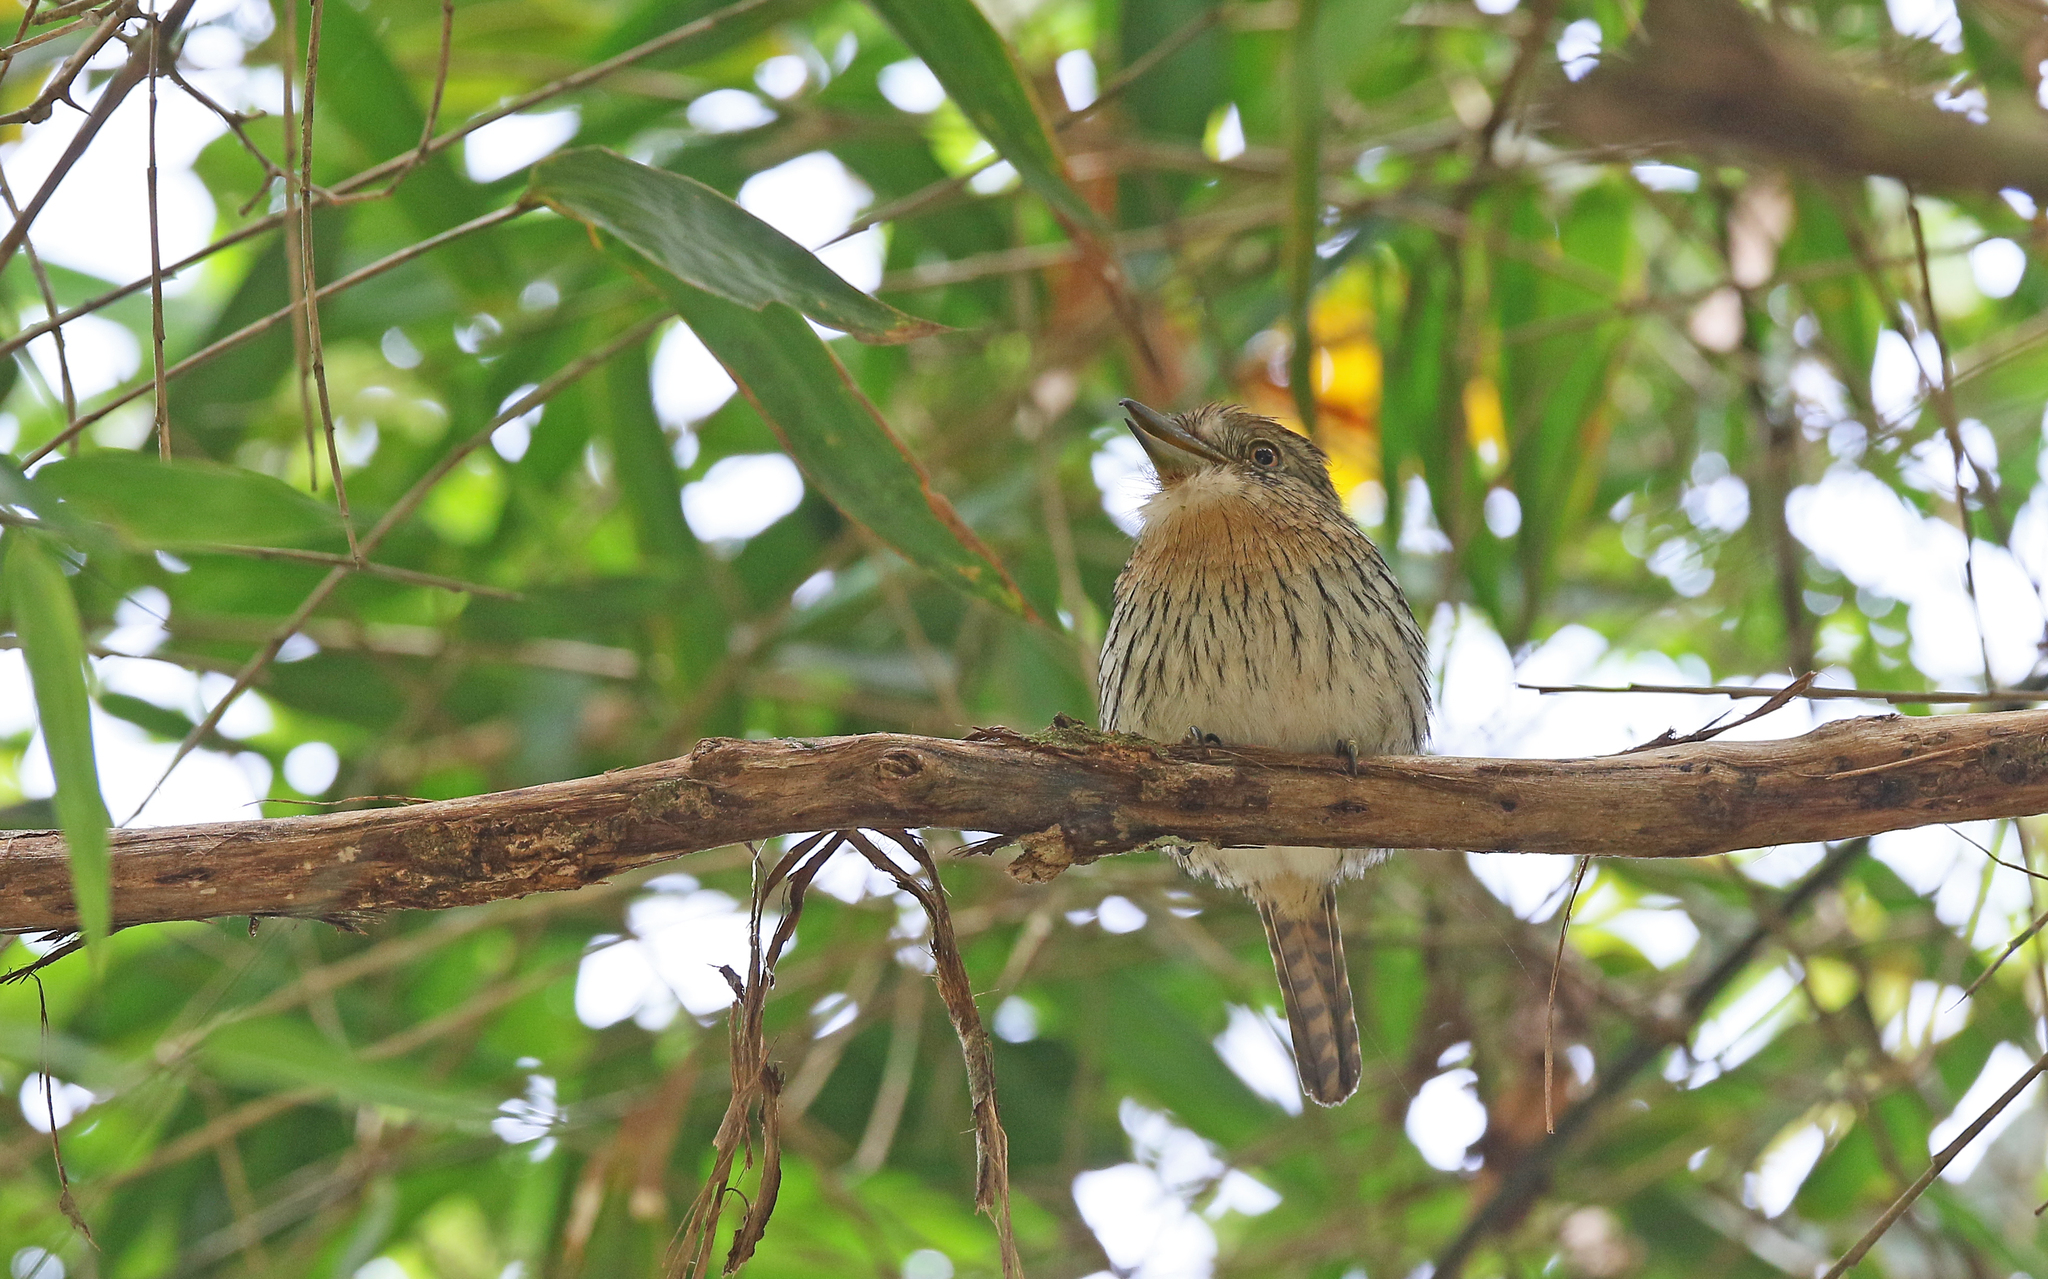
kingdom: Animalia
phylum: Chordata
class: Aves
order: Piciformes
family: Bucconidae
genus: Nystalus
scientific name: Nystalus obamai
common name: Western striolated puffbird
